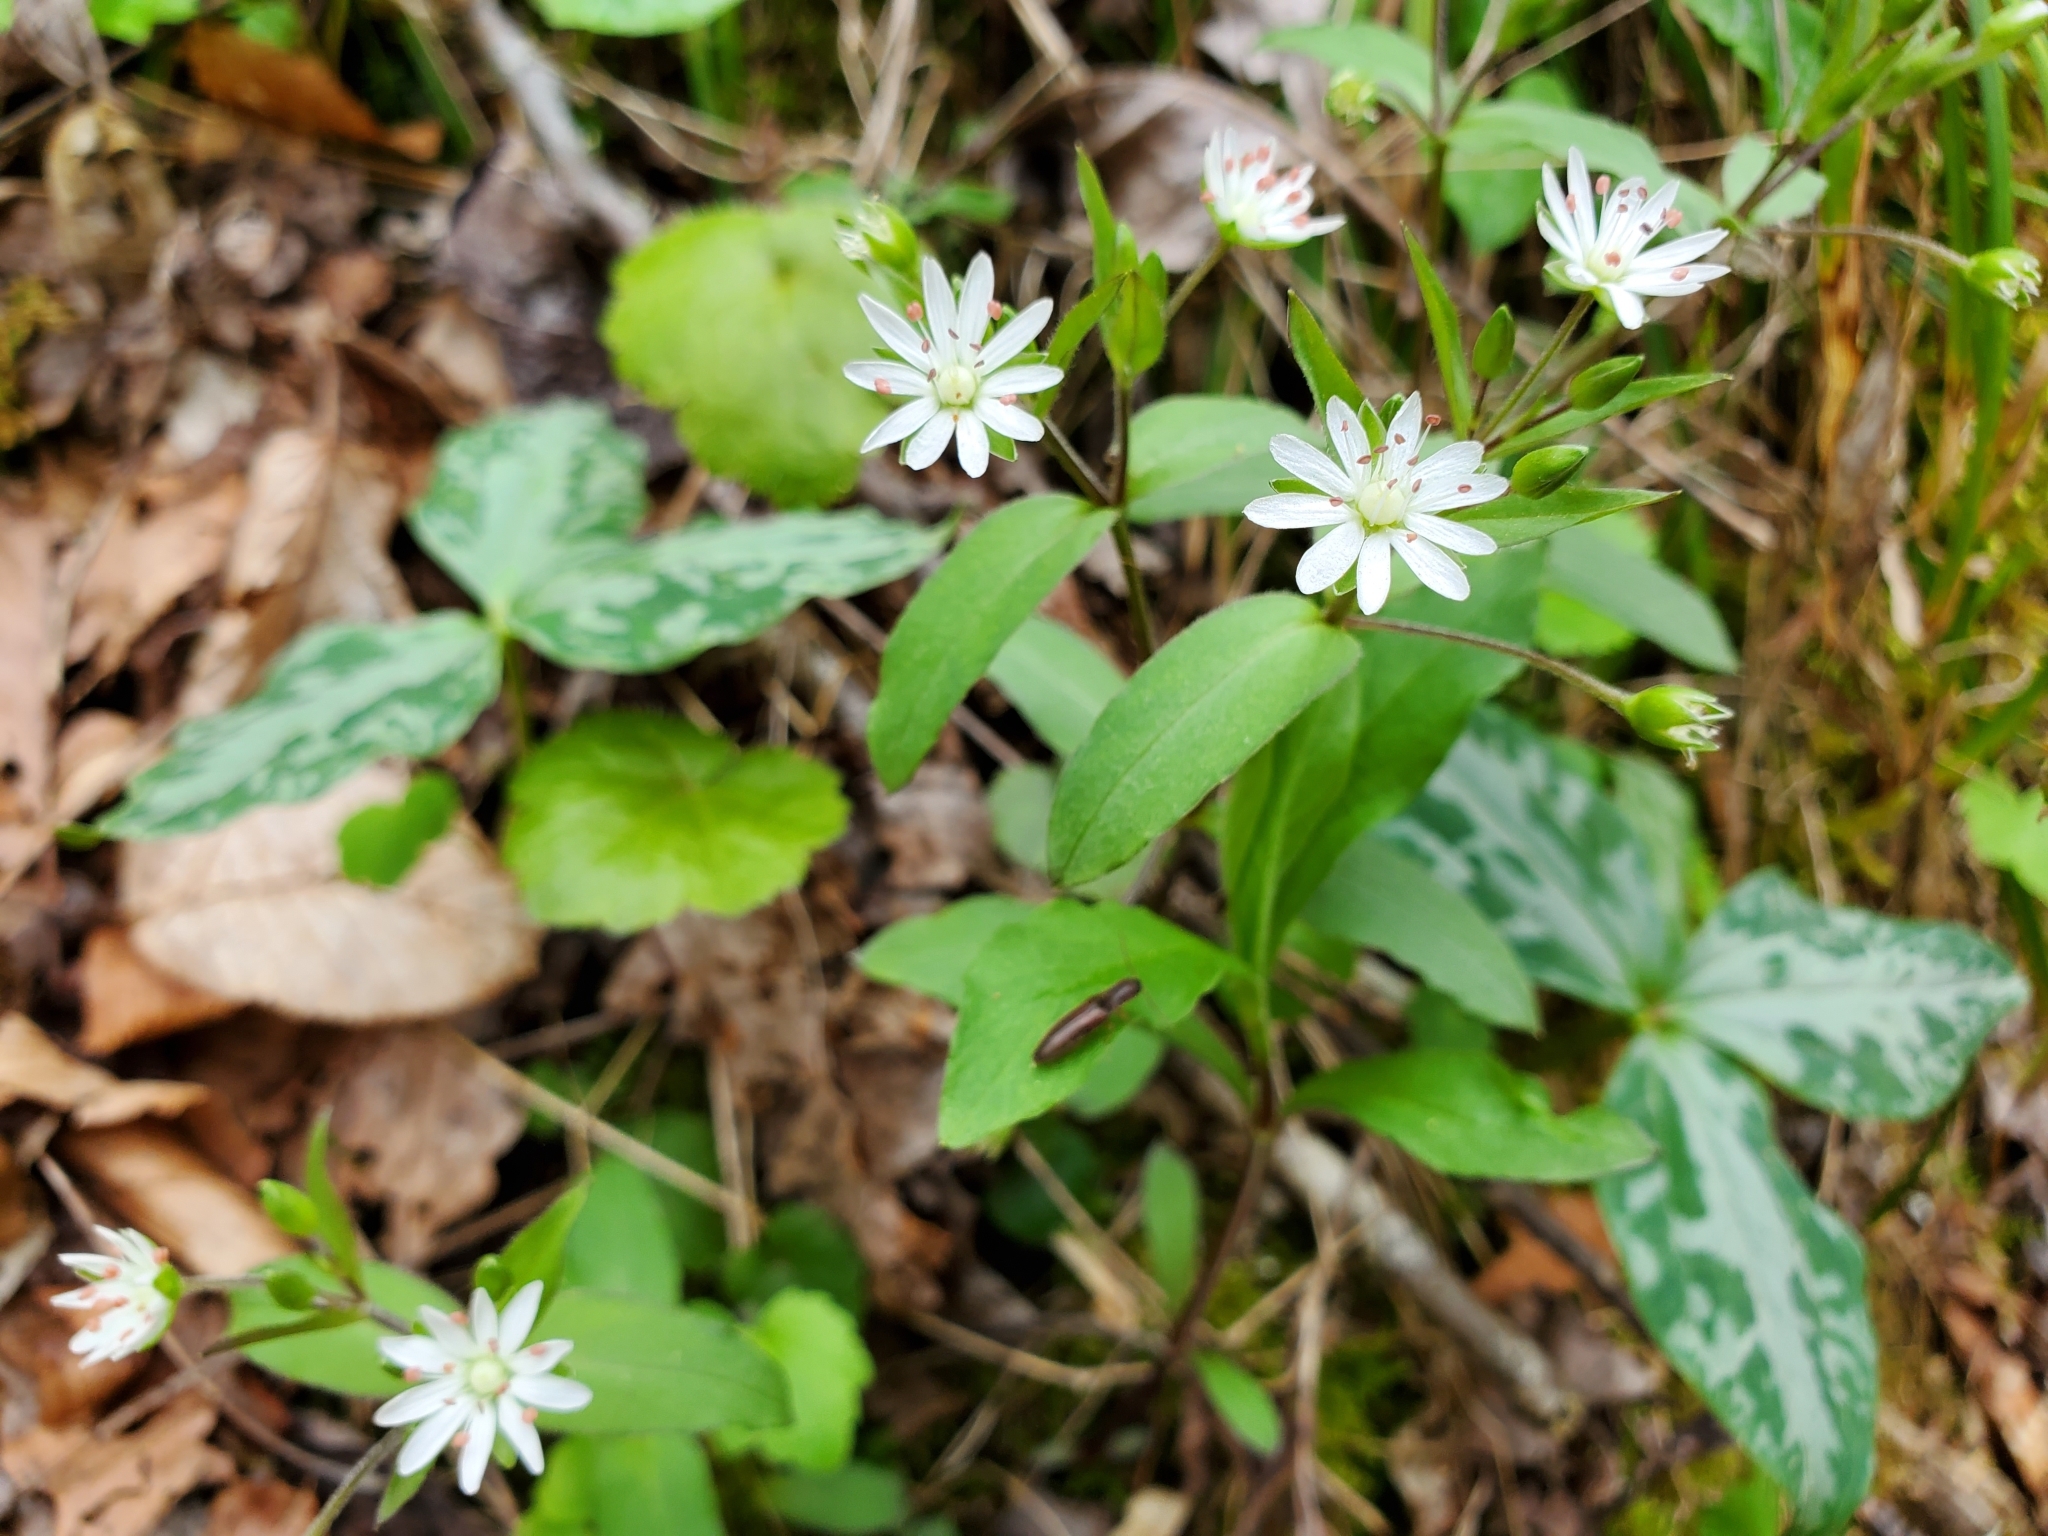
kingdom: Plantae
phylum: Tracheophyta
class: Magnoliopsida
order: Caryophyllales
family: Caryophyllaceae
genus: Stellaria
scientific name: Stellaria pubera
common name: Star chickweed
